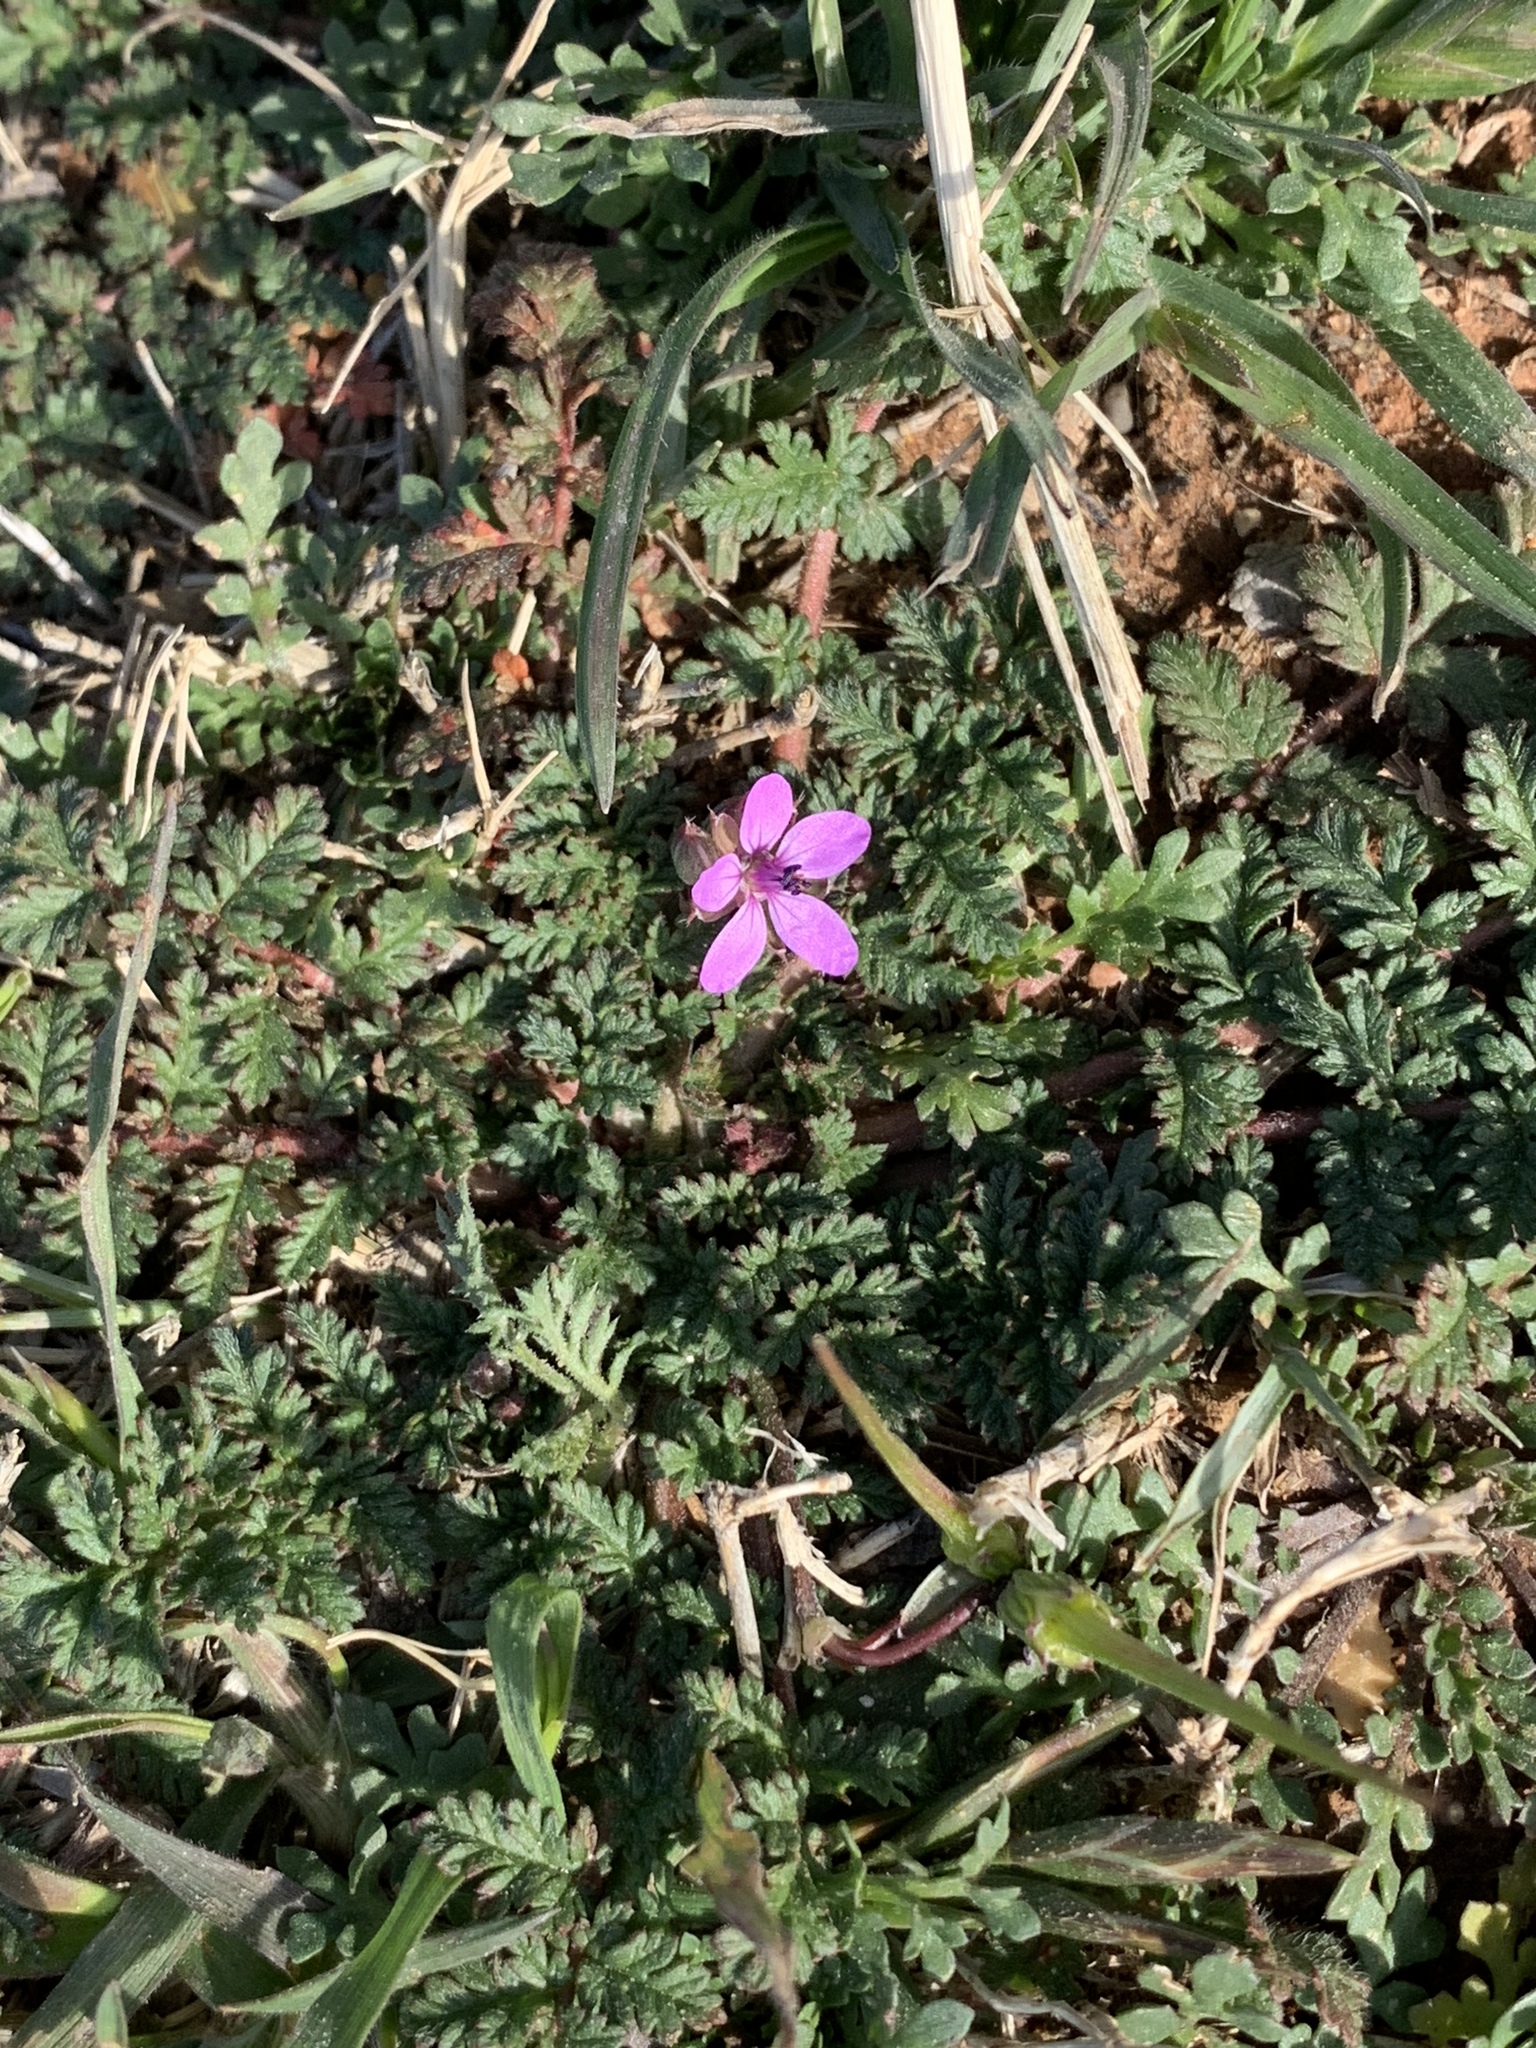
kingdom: Plantae
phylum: Tracheophyta
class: Magnoliopsida
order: Geraniales
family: Geraniaceae
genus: Erodium
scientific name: Erodium cicutarium
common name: Common stork's-bill
